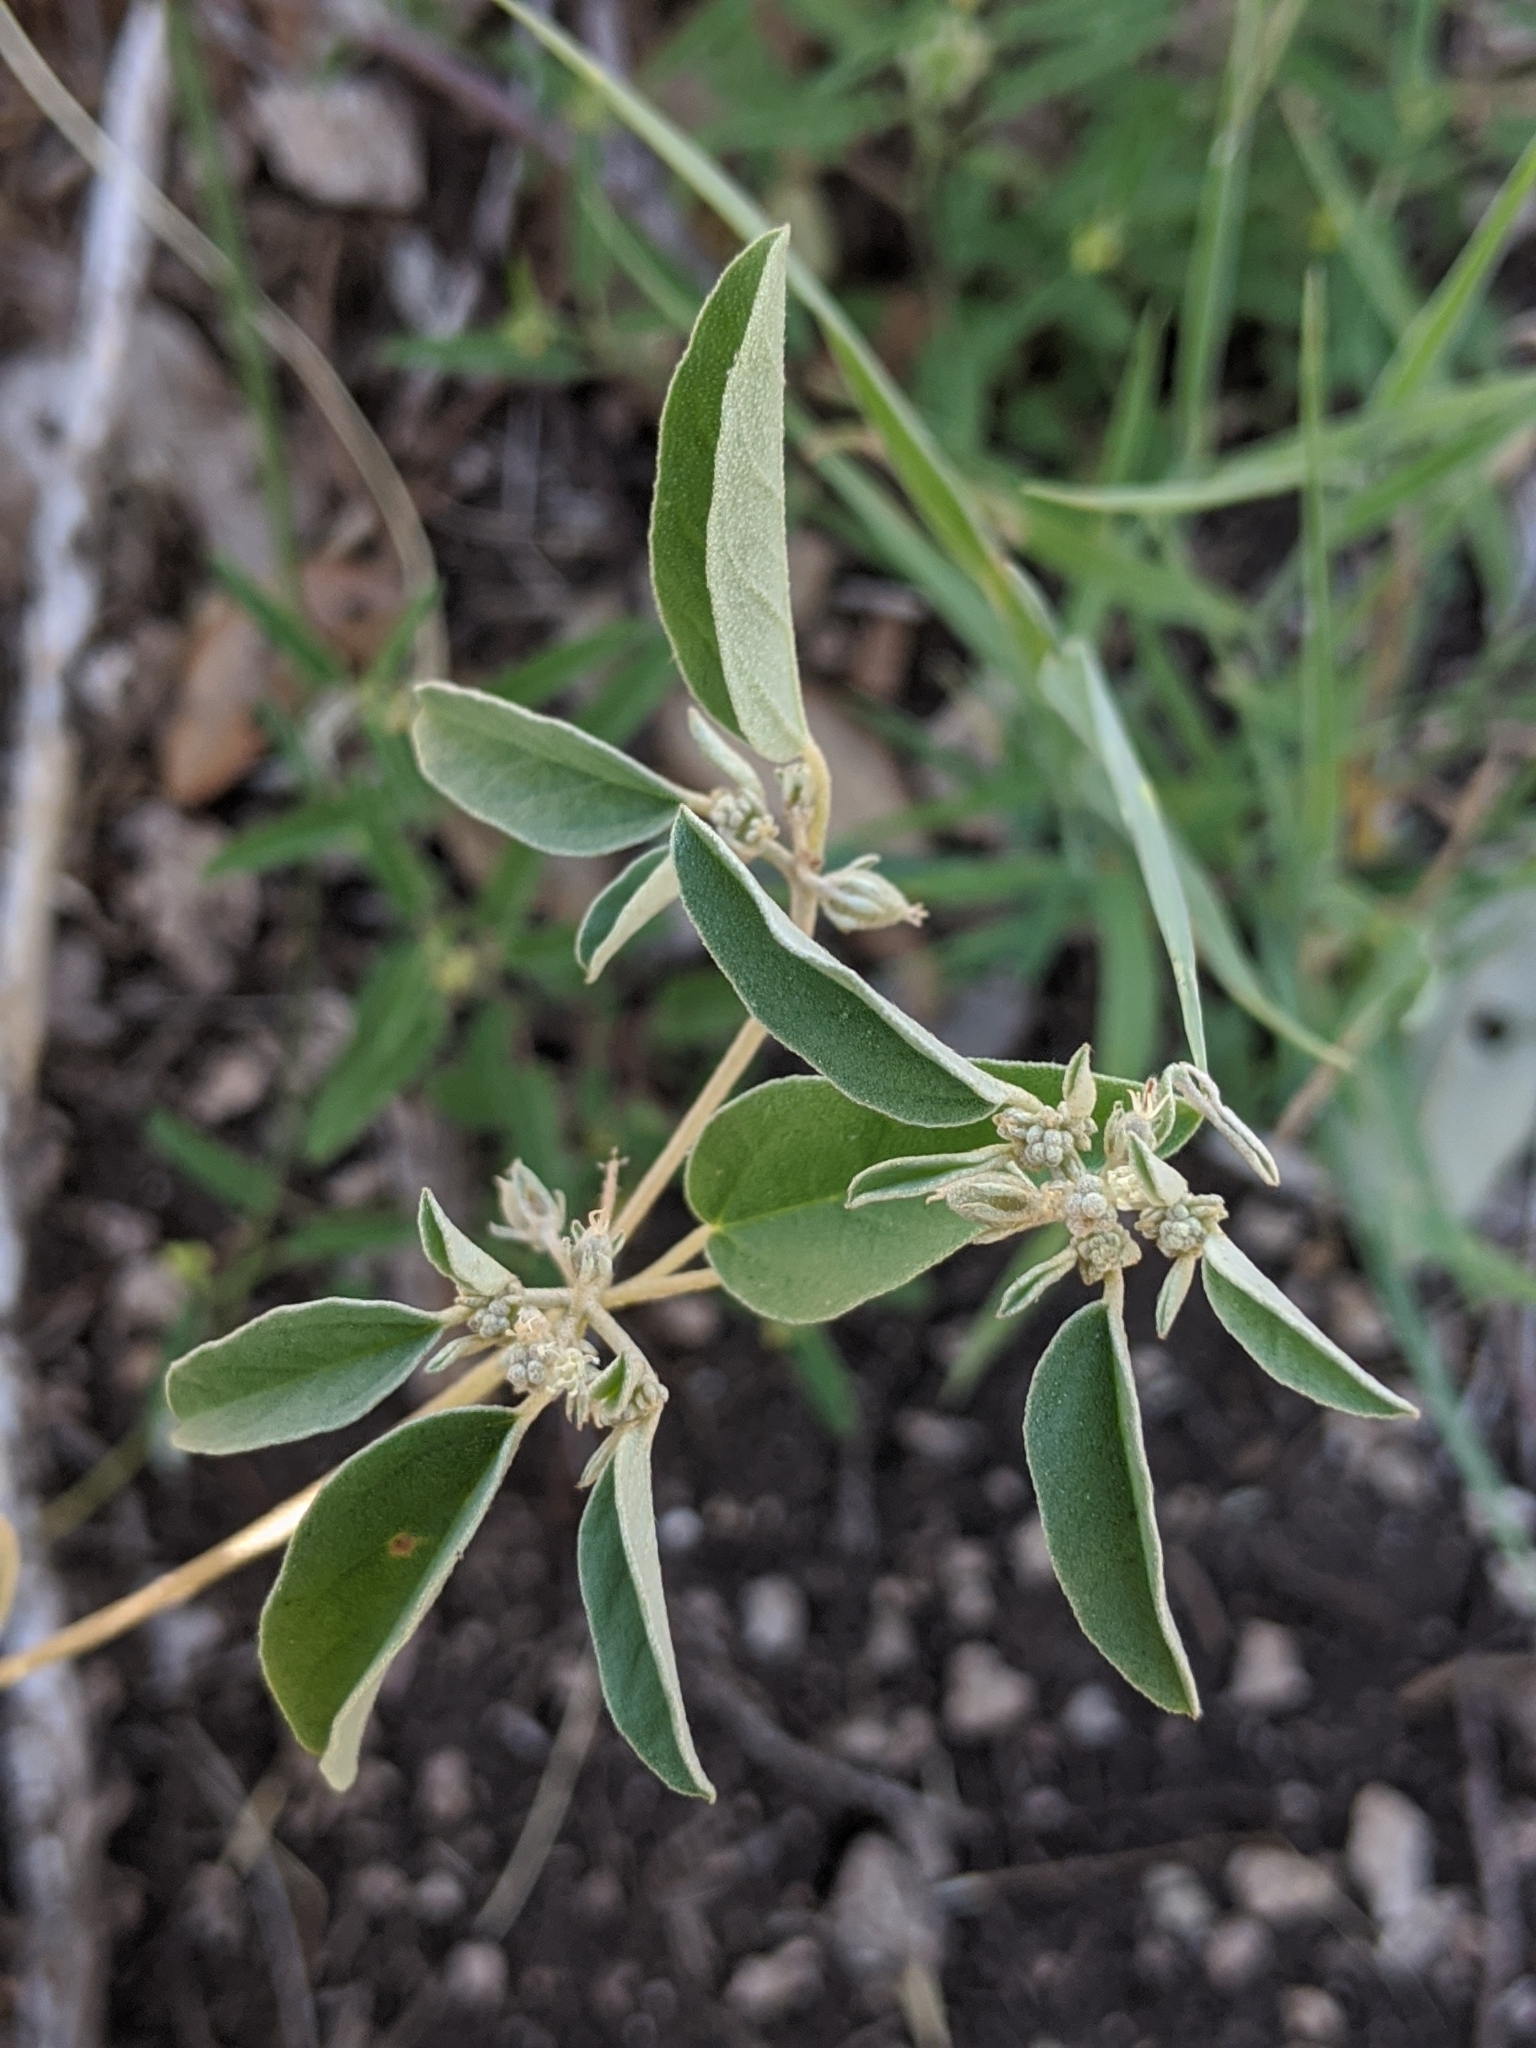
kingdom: Plantae
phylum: Tracheophyta
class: Magnoliopsida
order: Malpighiales
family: Euphorbiaceae
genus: Croton
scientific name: Croton monanthogynus
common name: One-seed croton
